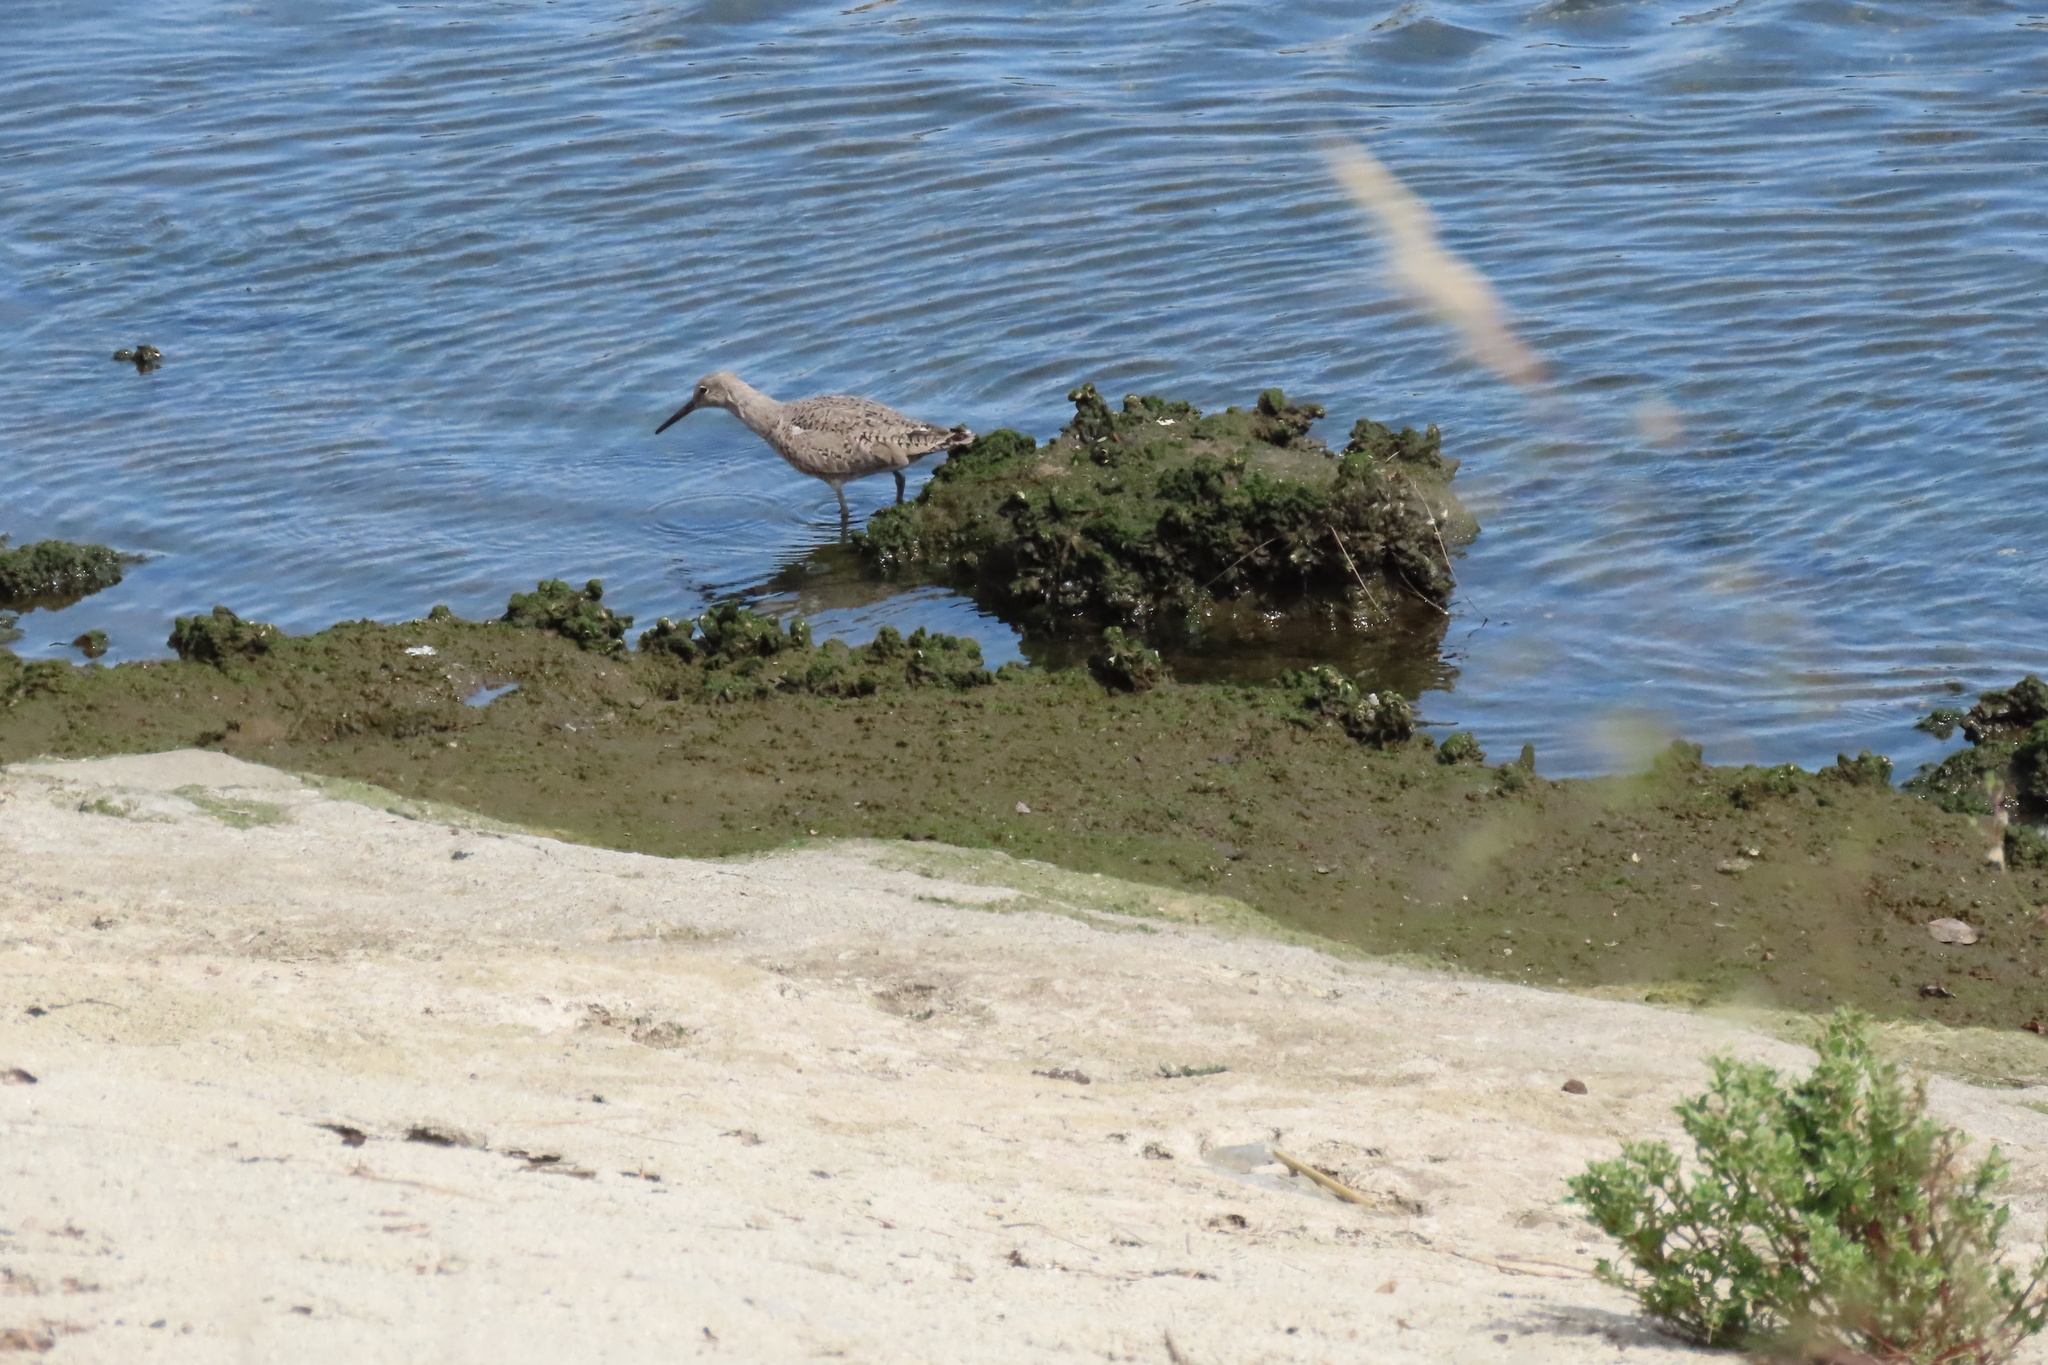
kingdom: Animalia
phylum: Chordata
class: Aves
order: Charadriiformes
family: Scolopacidae
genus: Tringa
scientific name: Tringa semipalmata
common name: Willet
